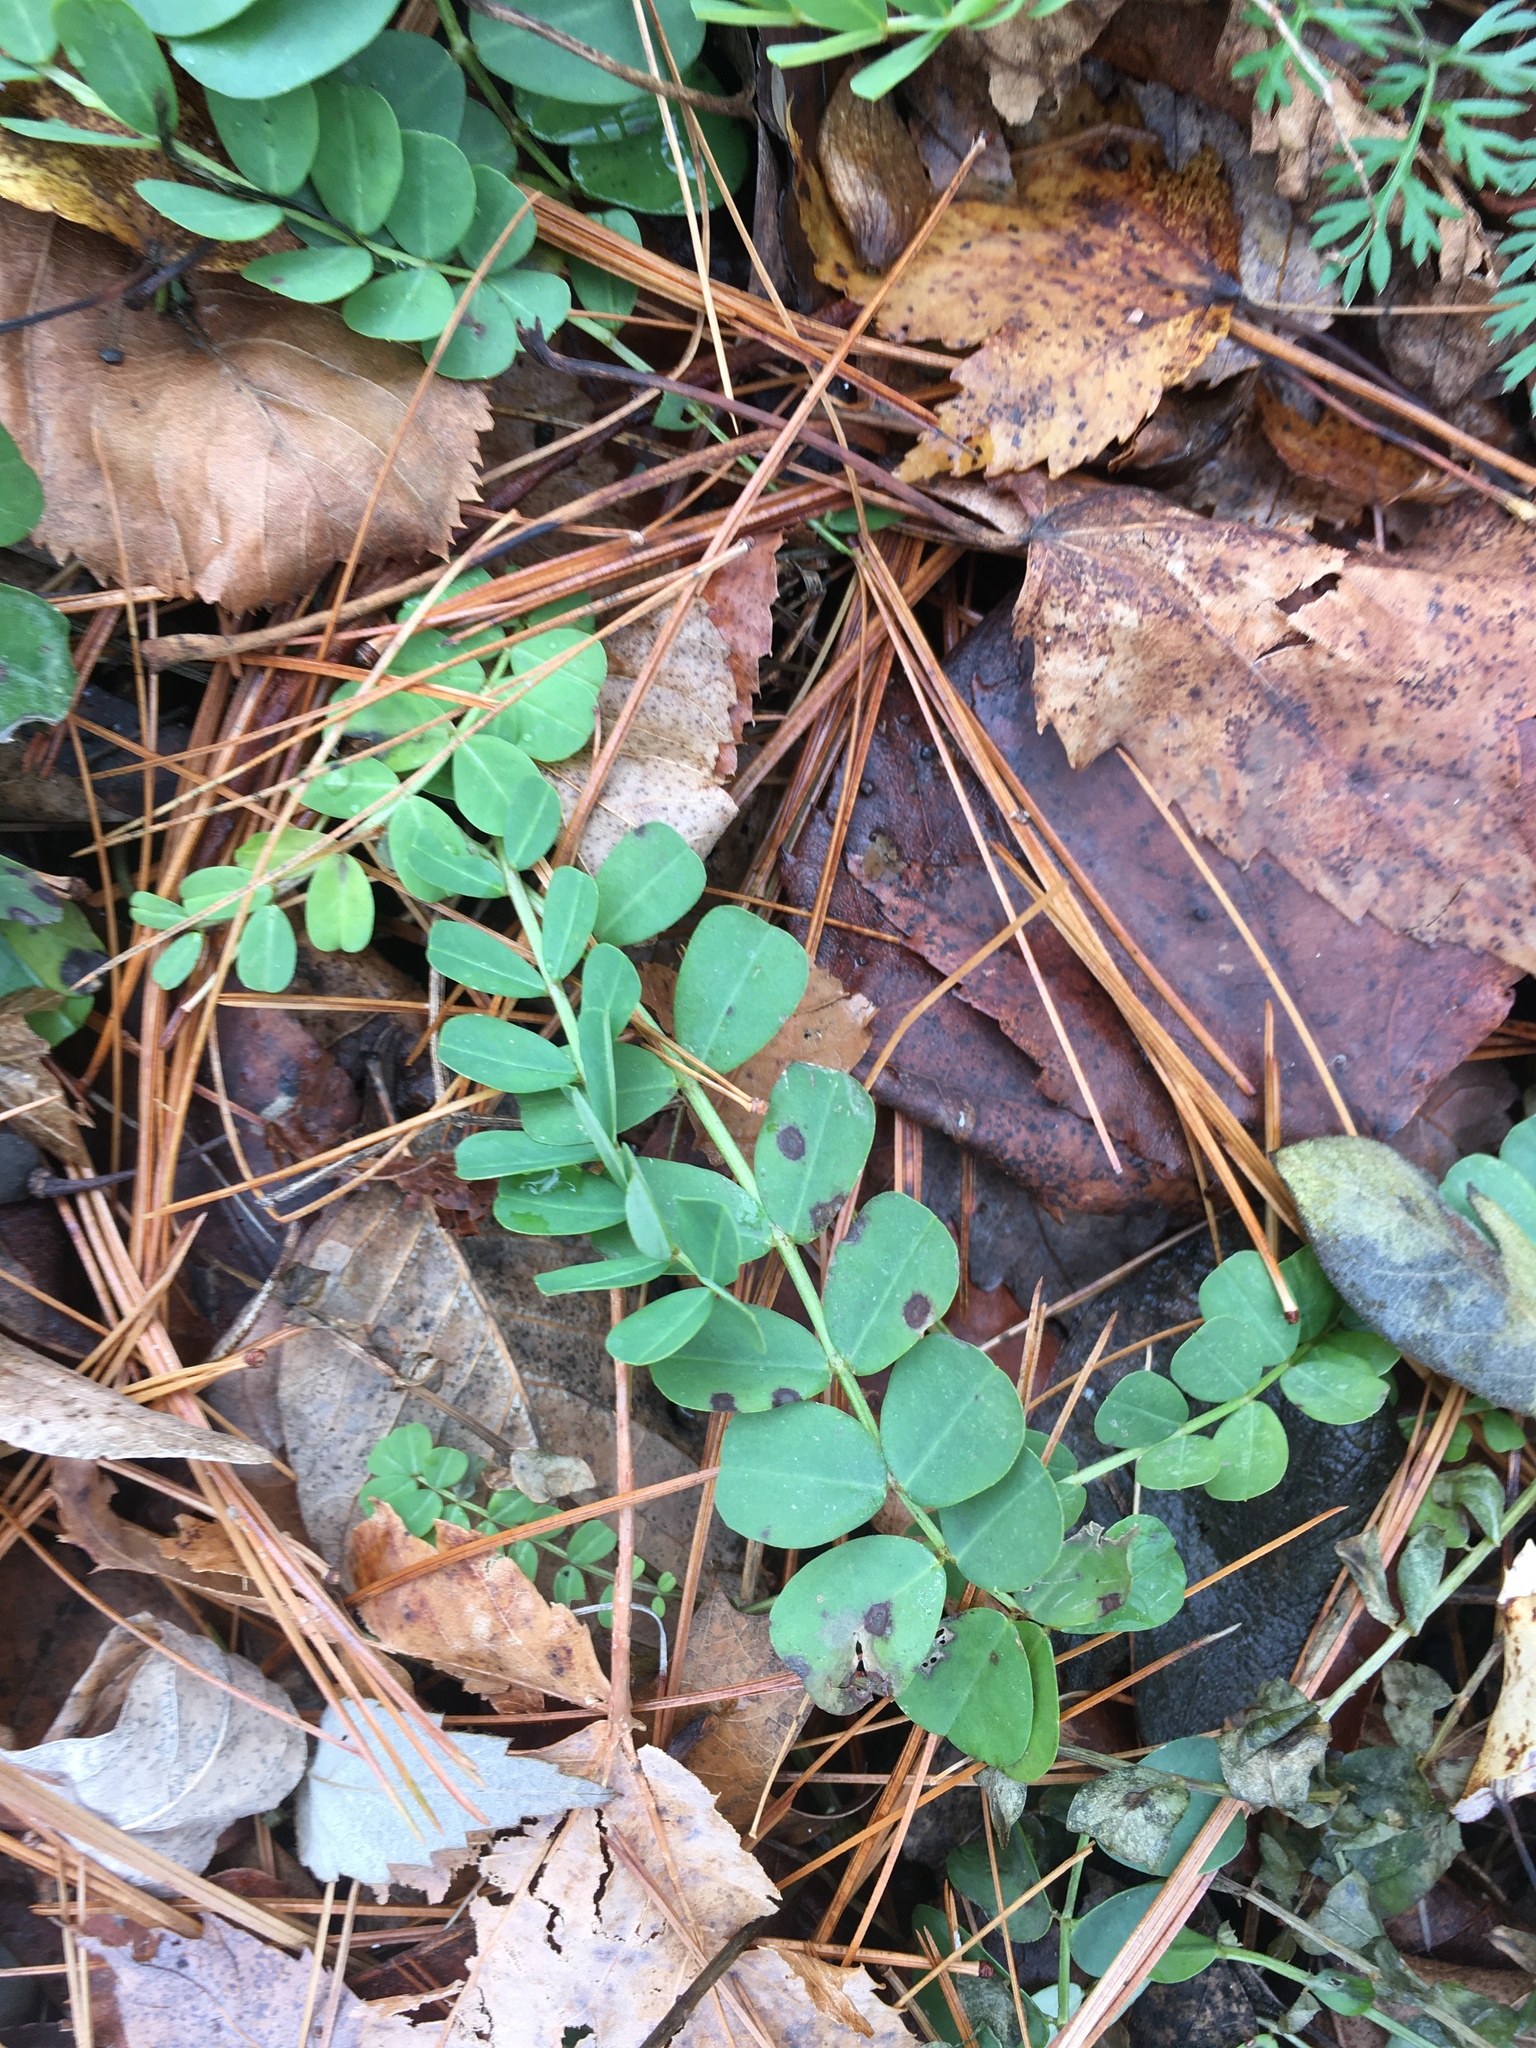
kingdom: Plantae
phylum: Tracheophyta
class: Magnoliopsida
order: Fabales
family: Fabaceae
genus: Coronilla
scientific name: Coronilla varia
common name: Crownvetch
